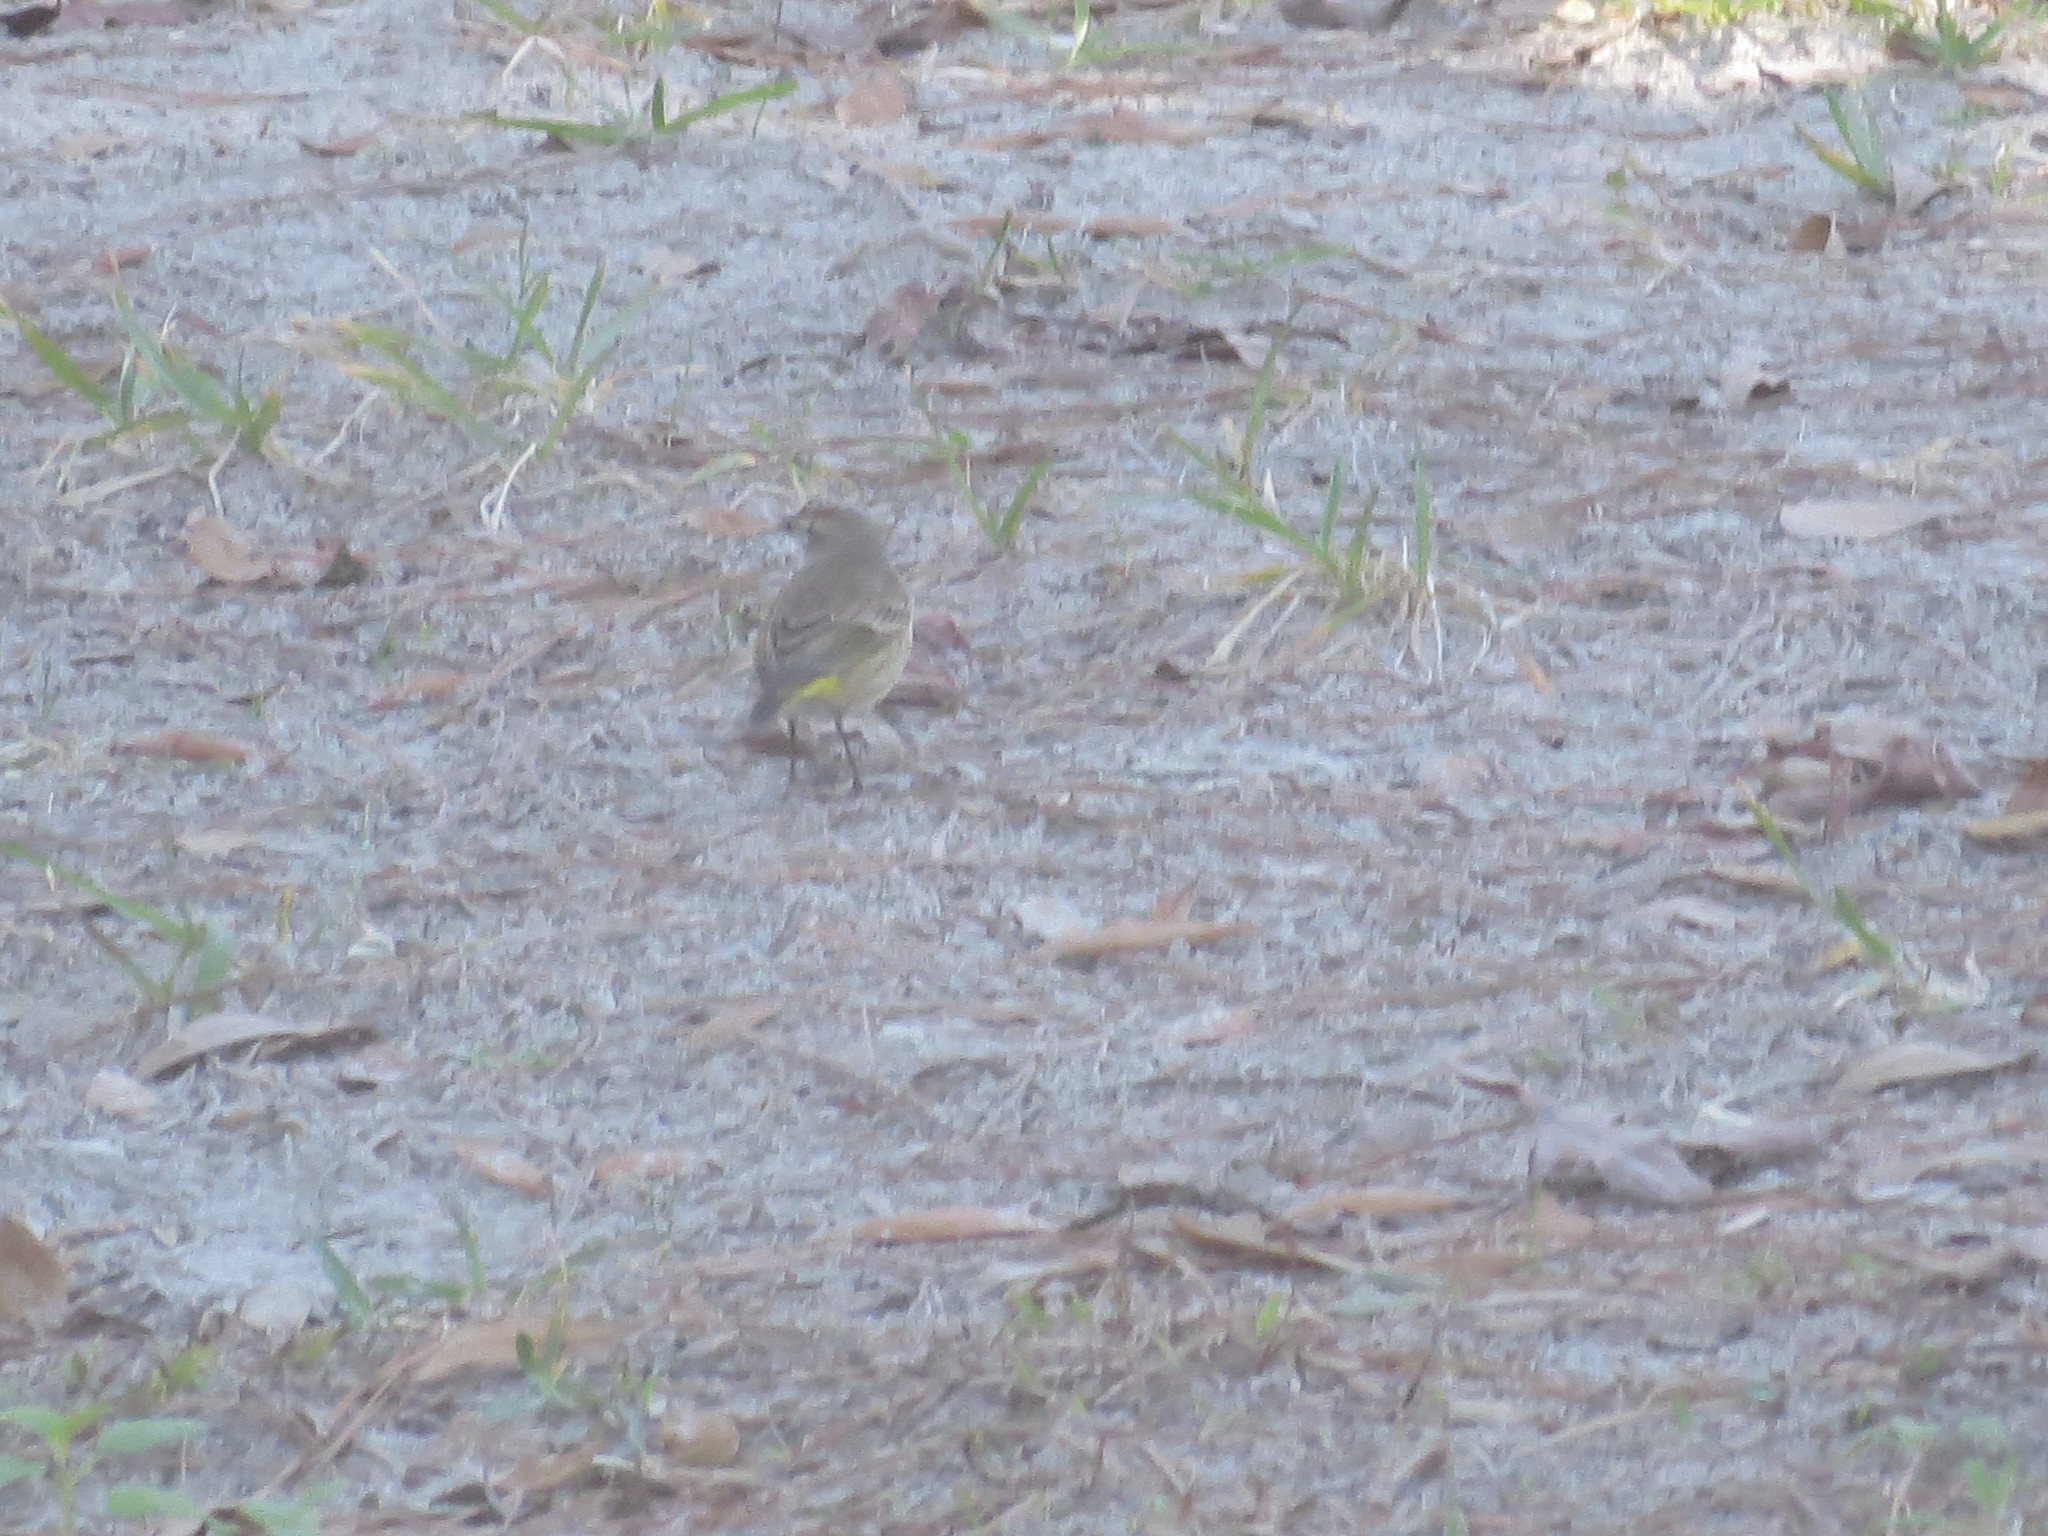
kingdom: Animalia
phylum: Chordata
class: Aves
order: Passeriformes
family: Parulidae
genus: Setophaga
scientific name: Setophaga palmarum
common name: Palm warbler
